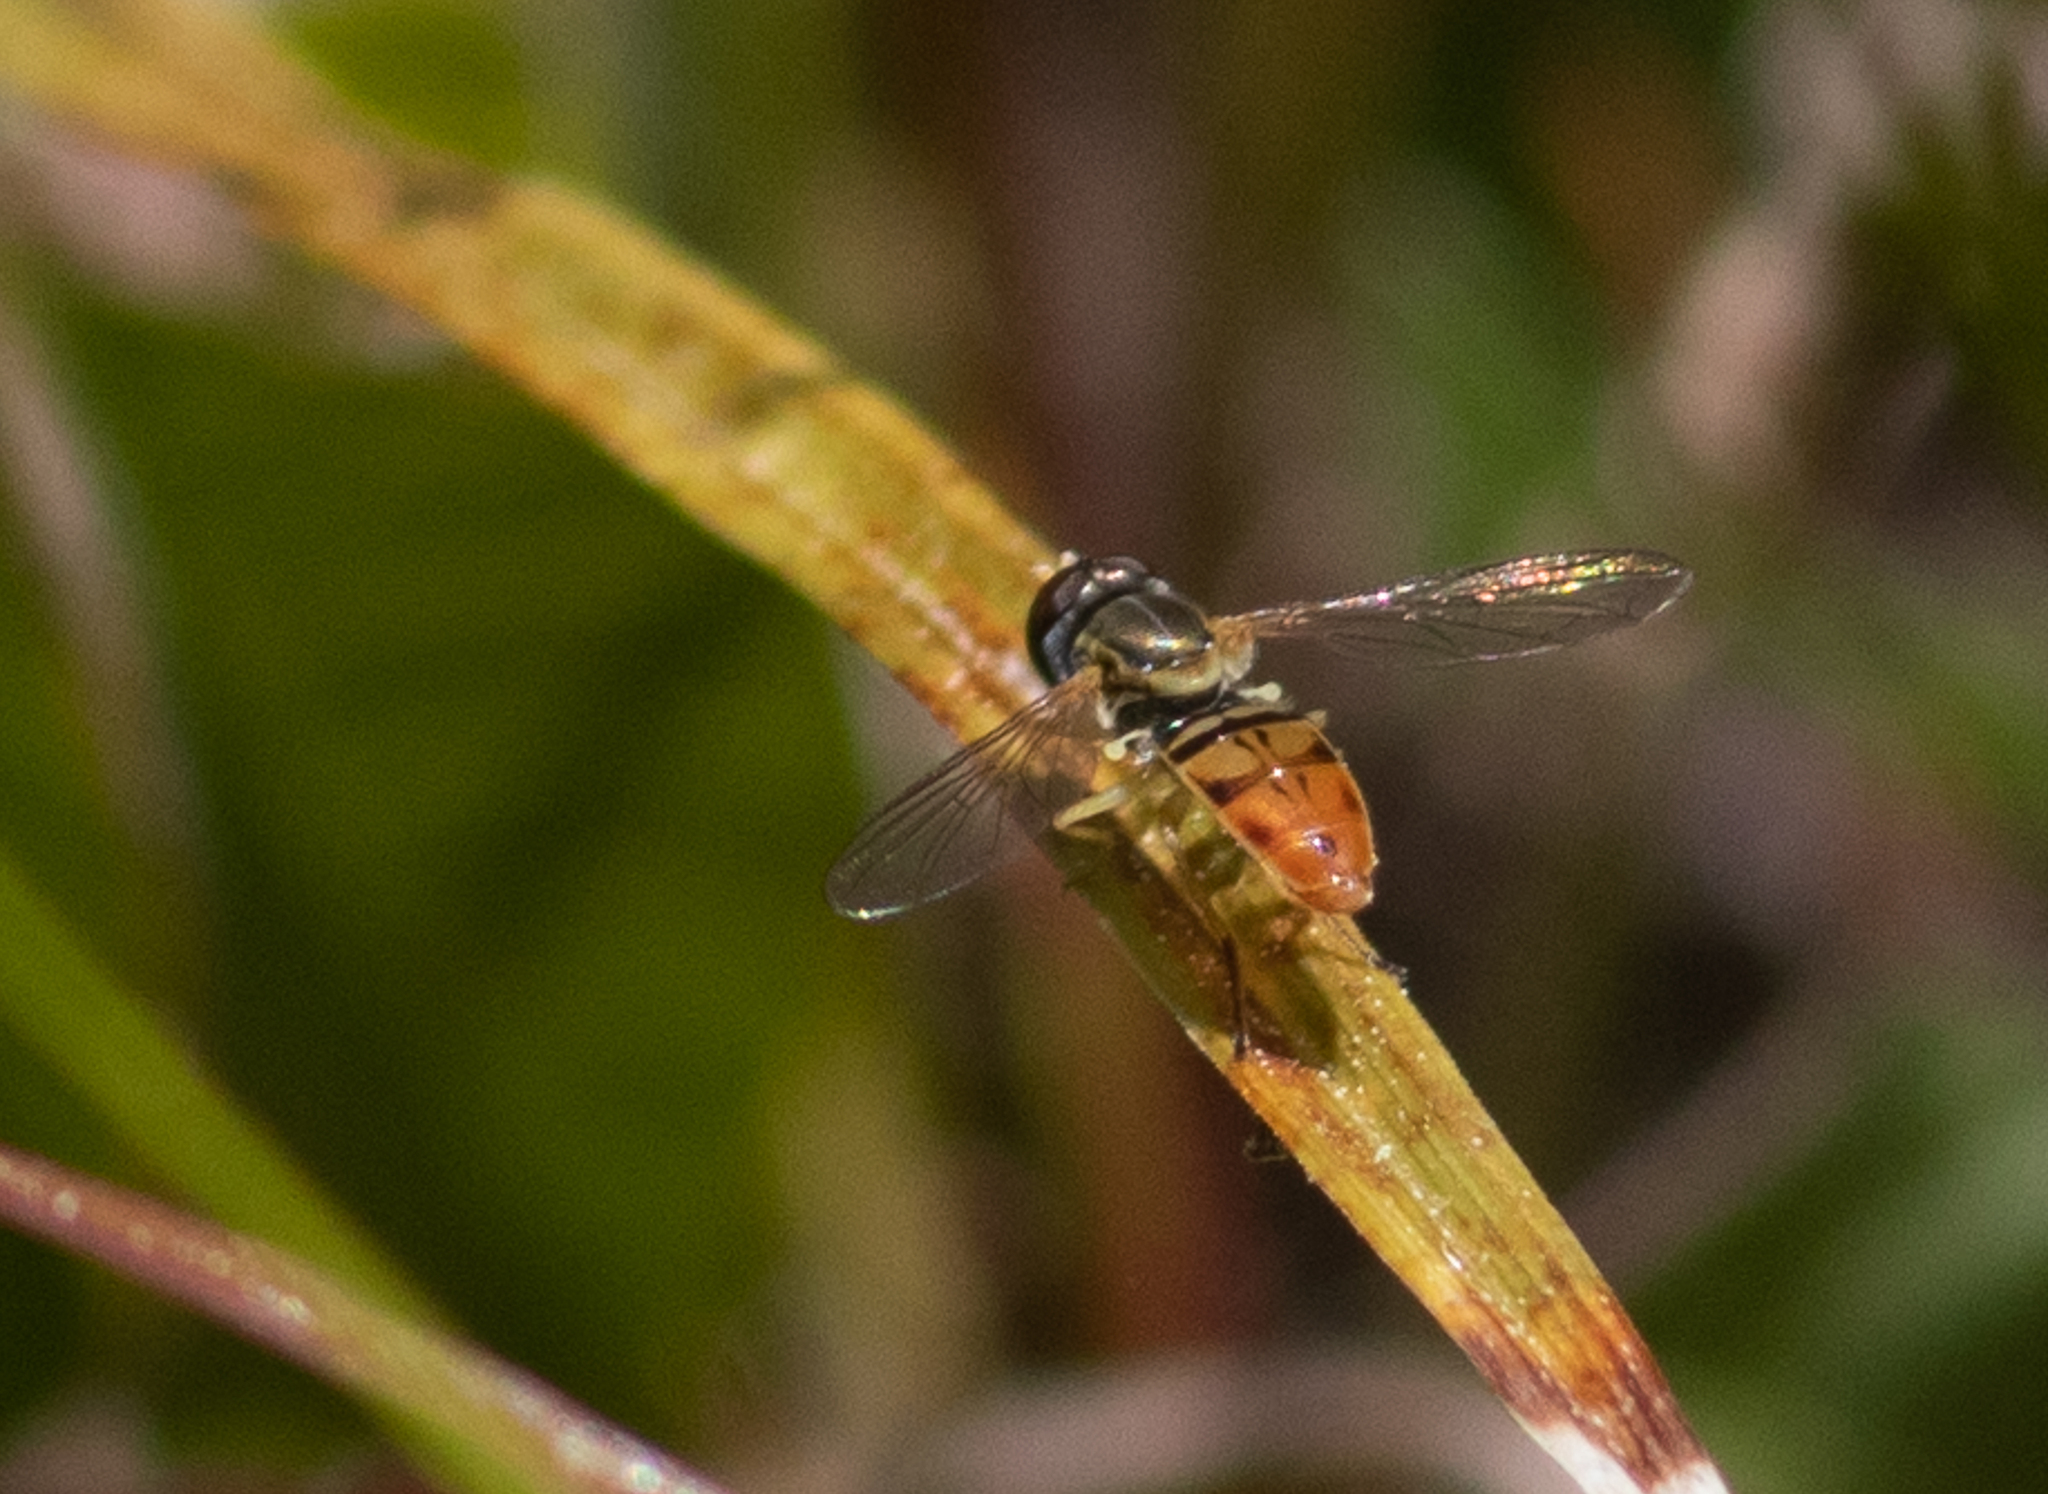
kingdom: Animalia
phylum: Arthropoda
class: Insecta
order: Diptera
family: Syrphidae
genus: Toxomerus
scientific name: Toxomerus marginatus
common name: Syrphid fly
